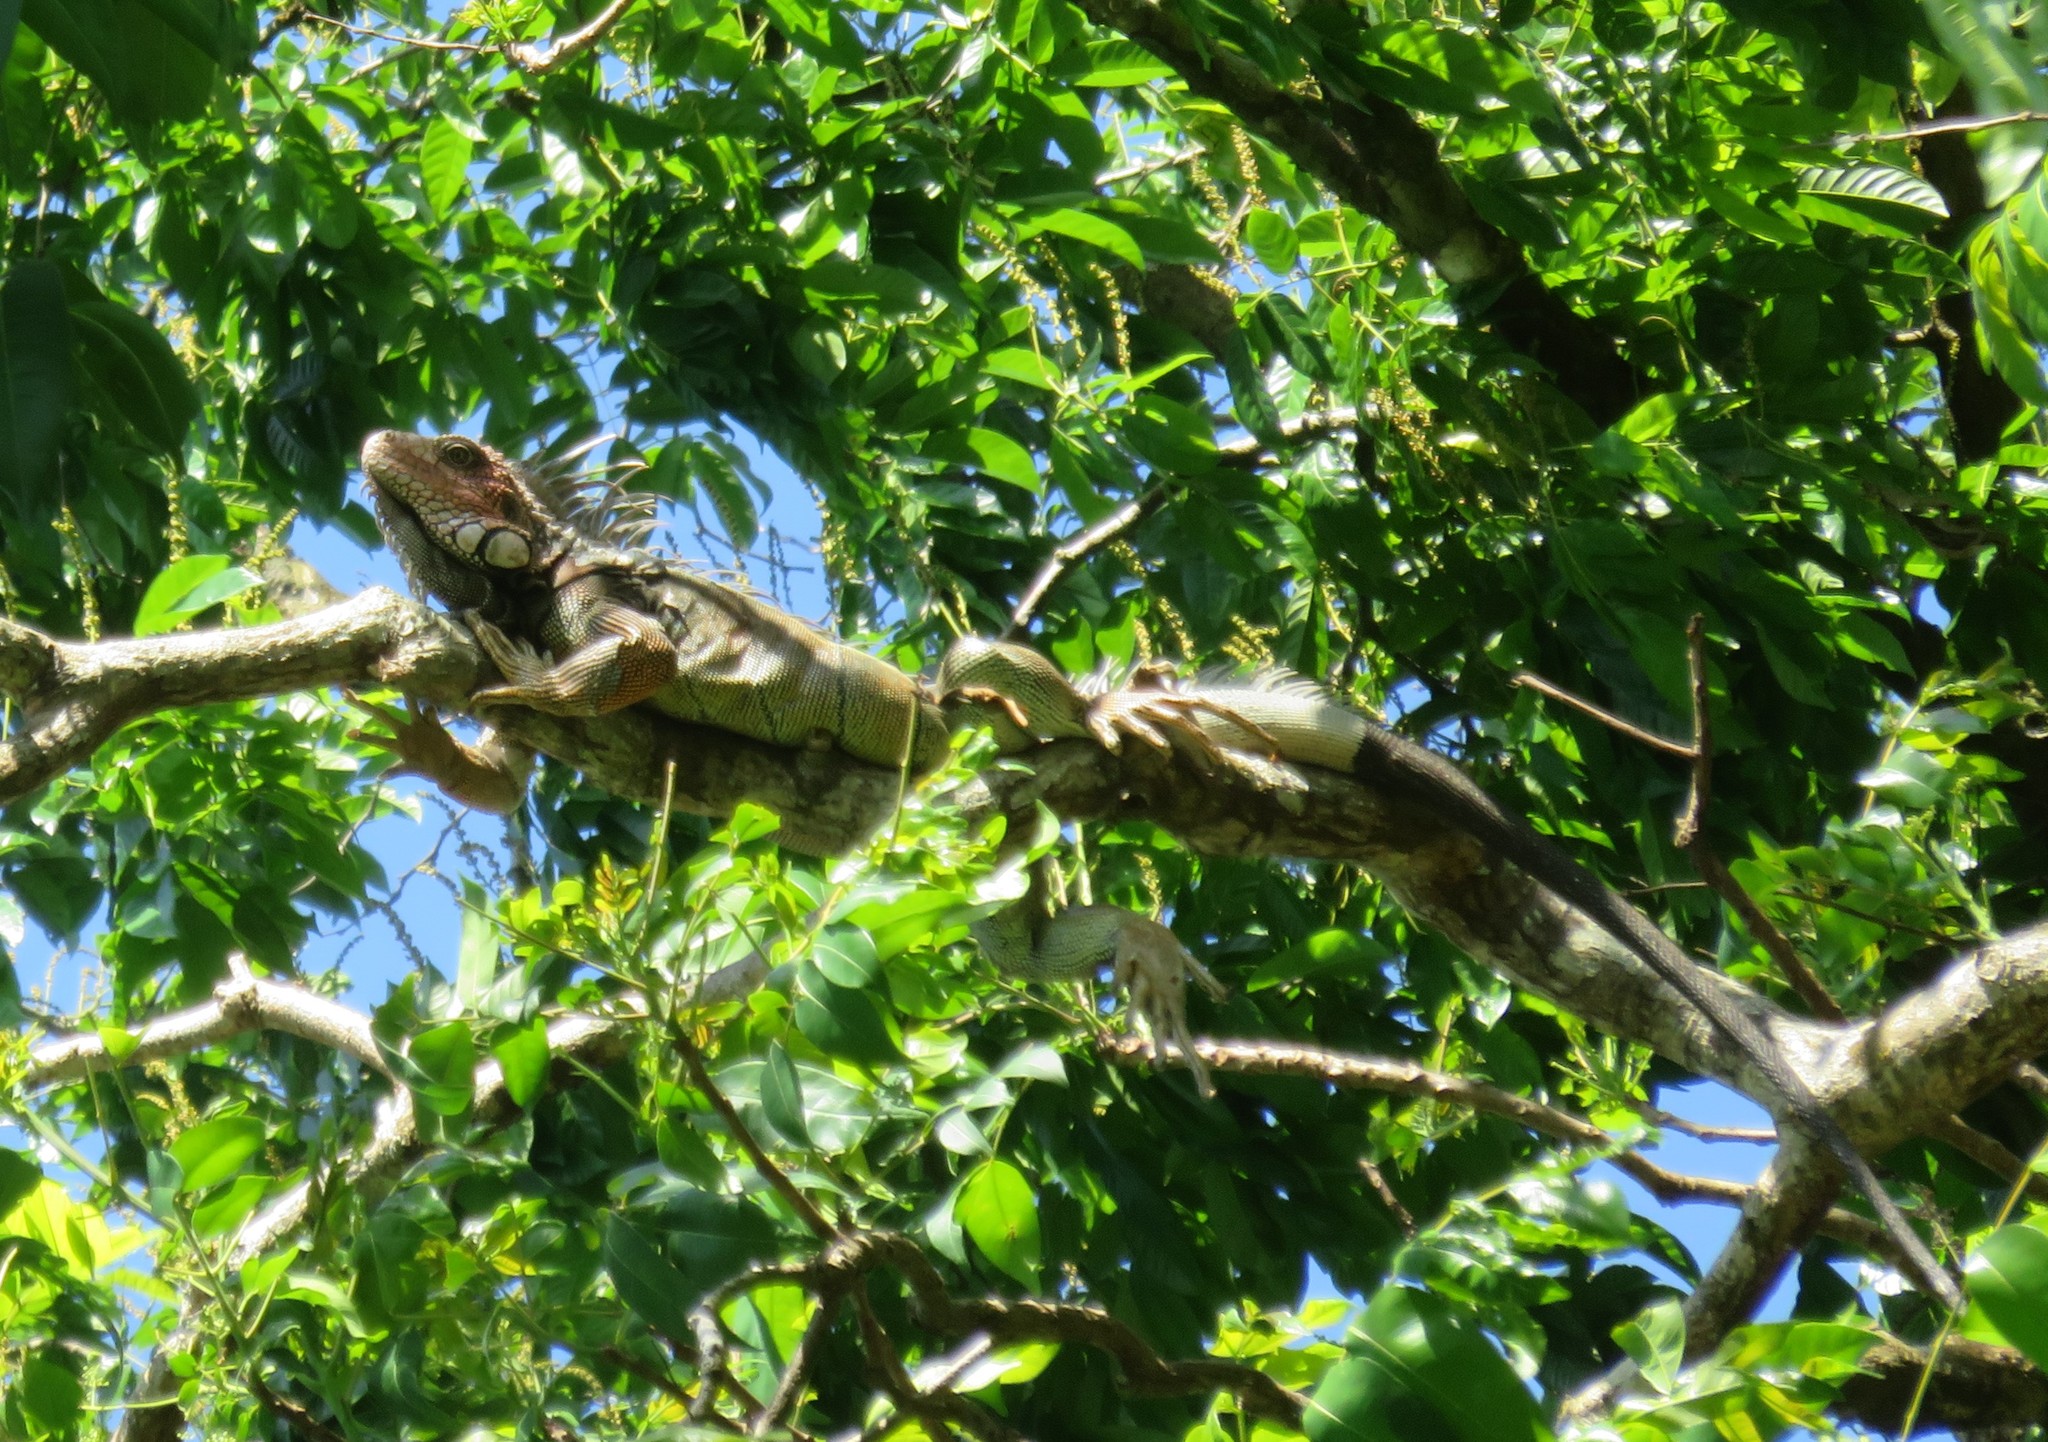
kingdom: Animalia
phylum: Chordata
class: Squamata
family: Iguanidae
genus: Iguana
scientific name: Iguana iguana
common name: Green iguana
